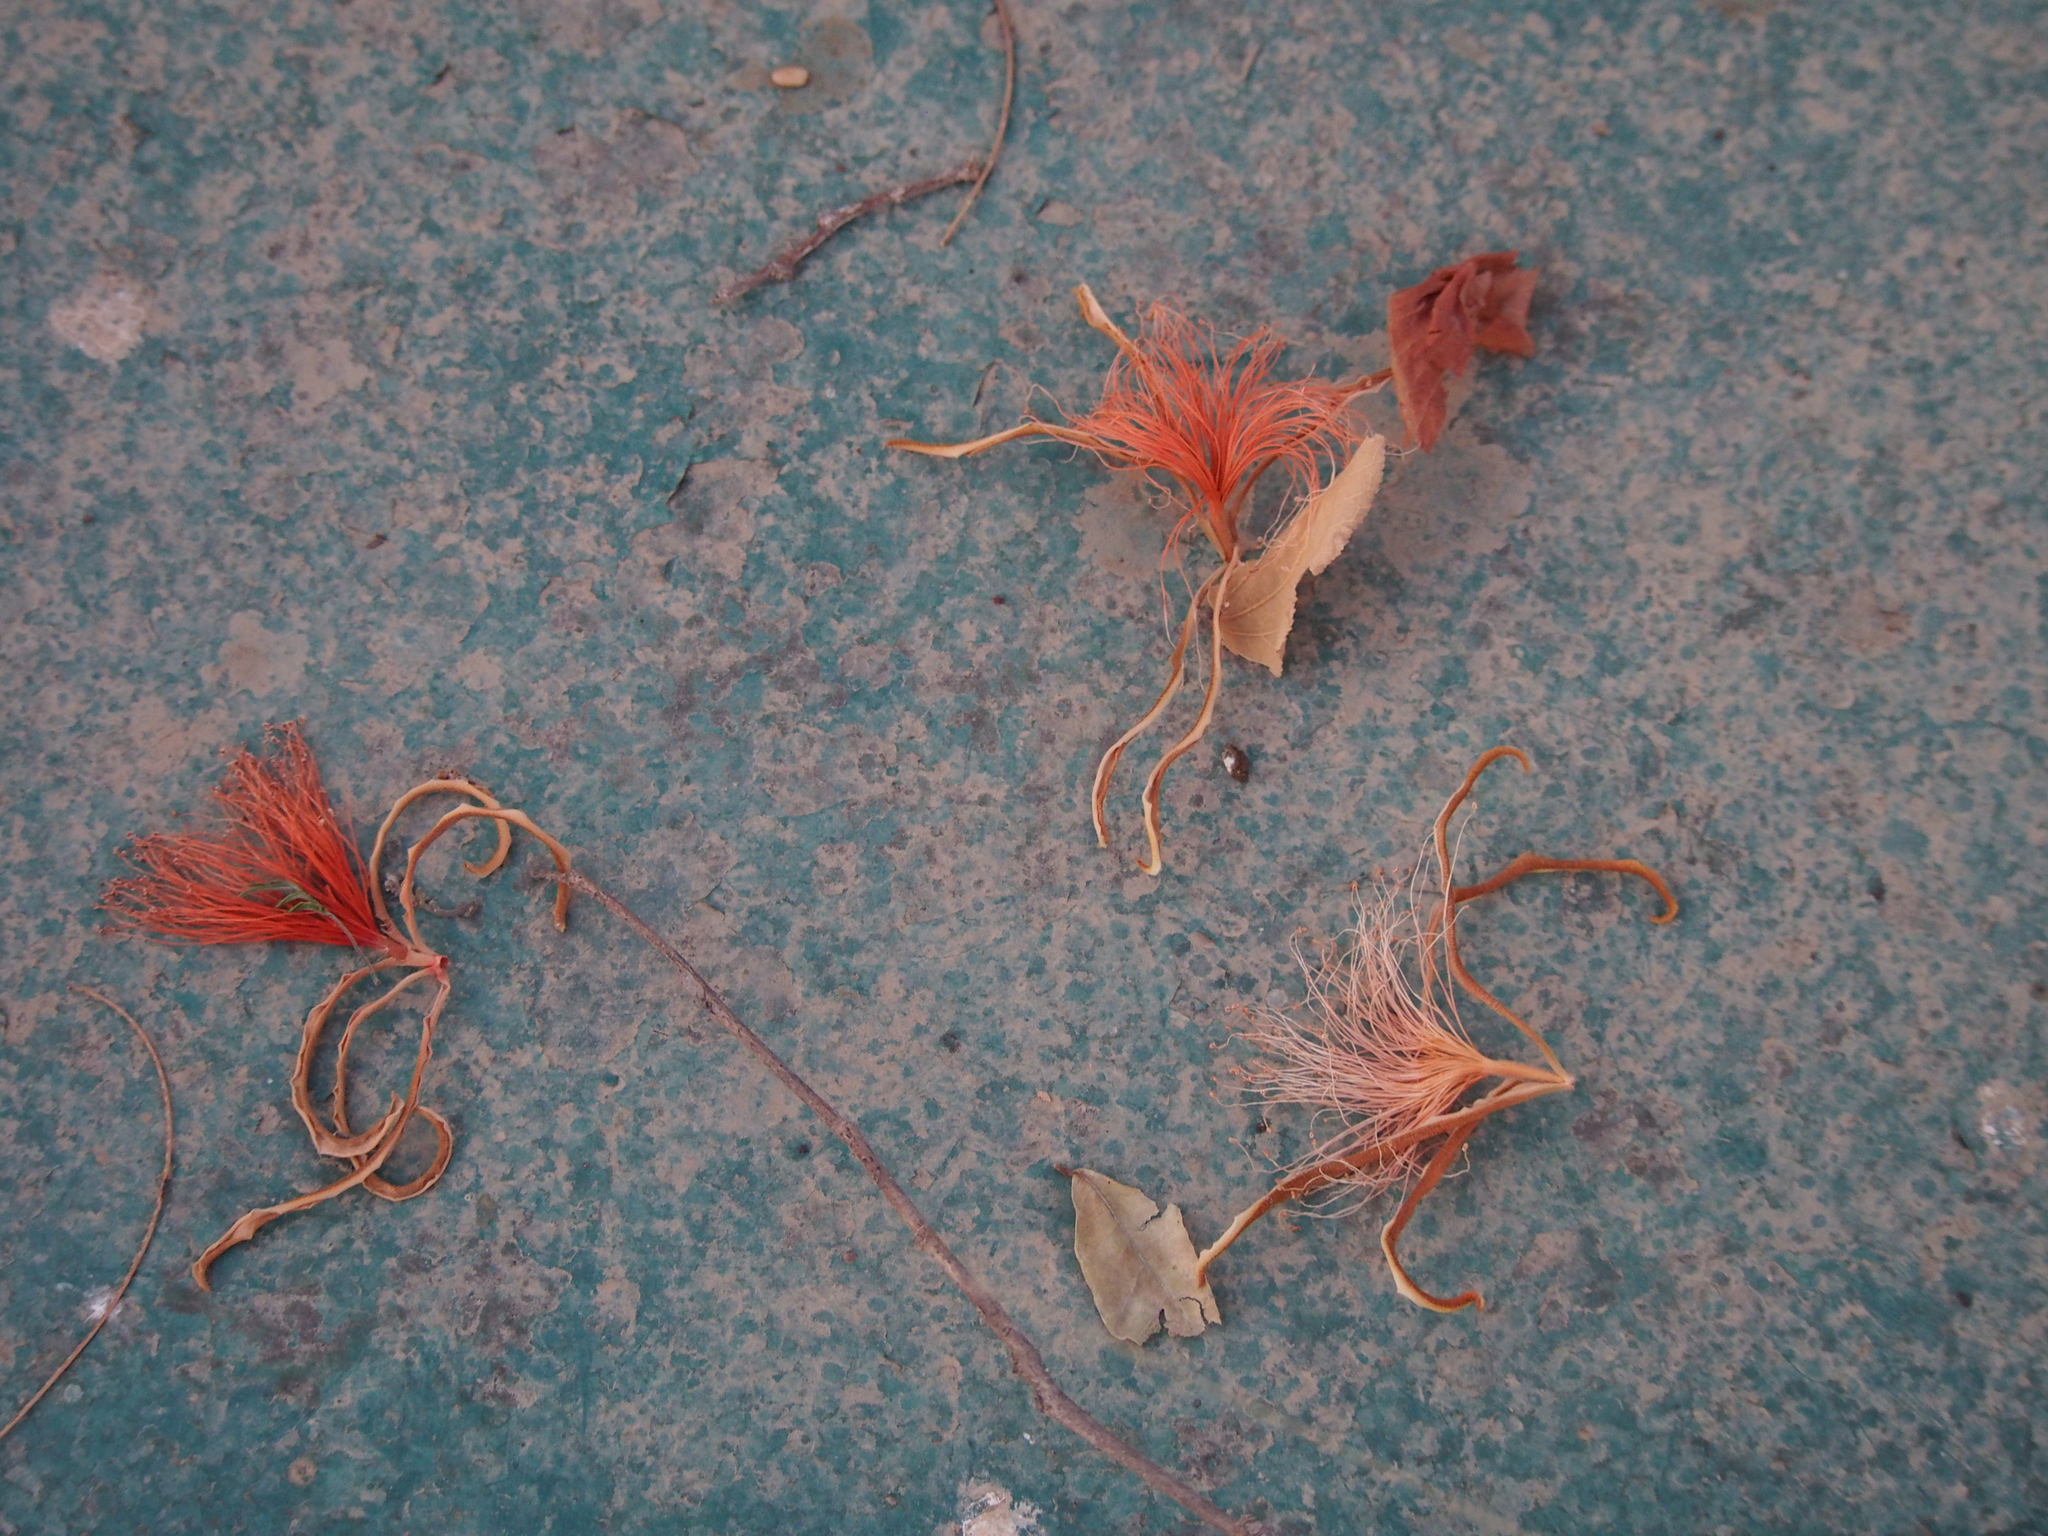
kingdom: Plantae
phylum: Tracheophyta
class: Magnoliopsida
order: Malvales
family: Malvaceae
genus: Pochota
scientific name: Pochota fendleri
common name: Chestnut
